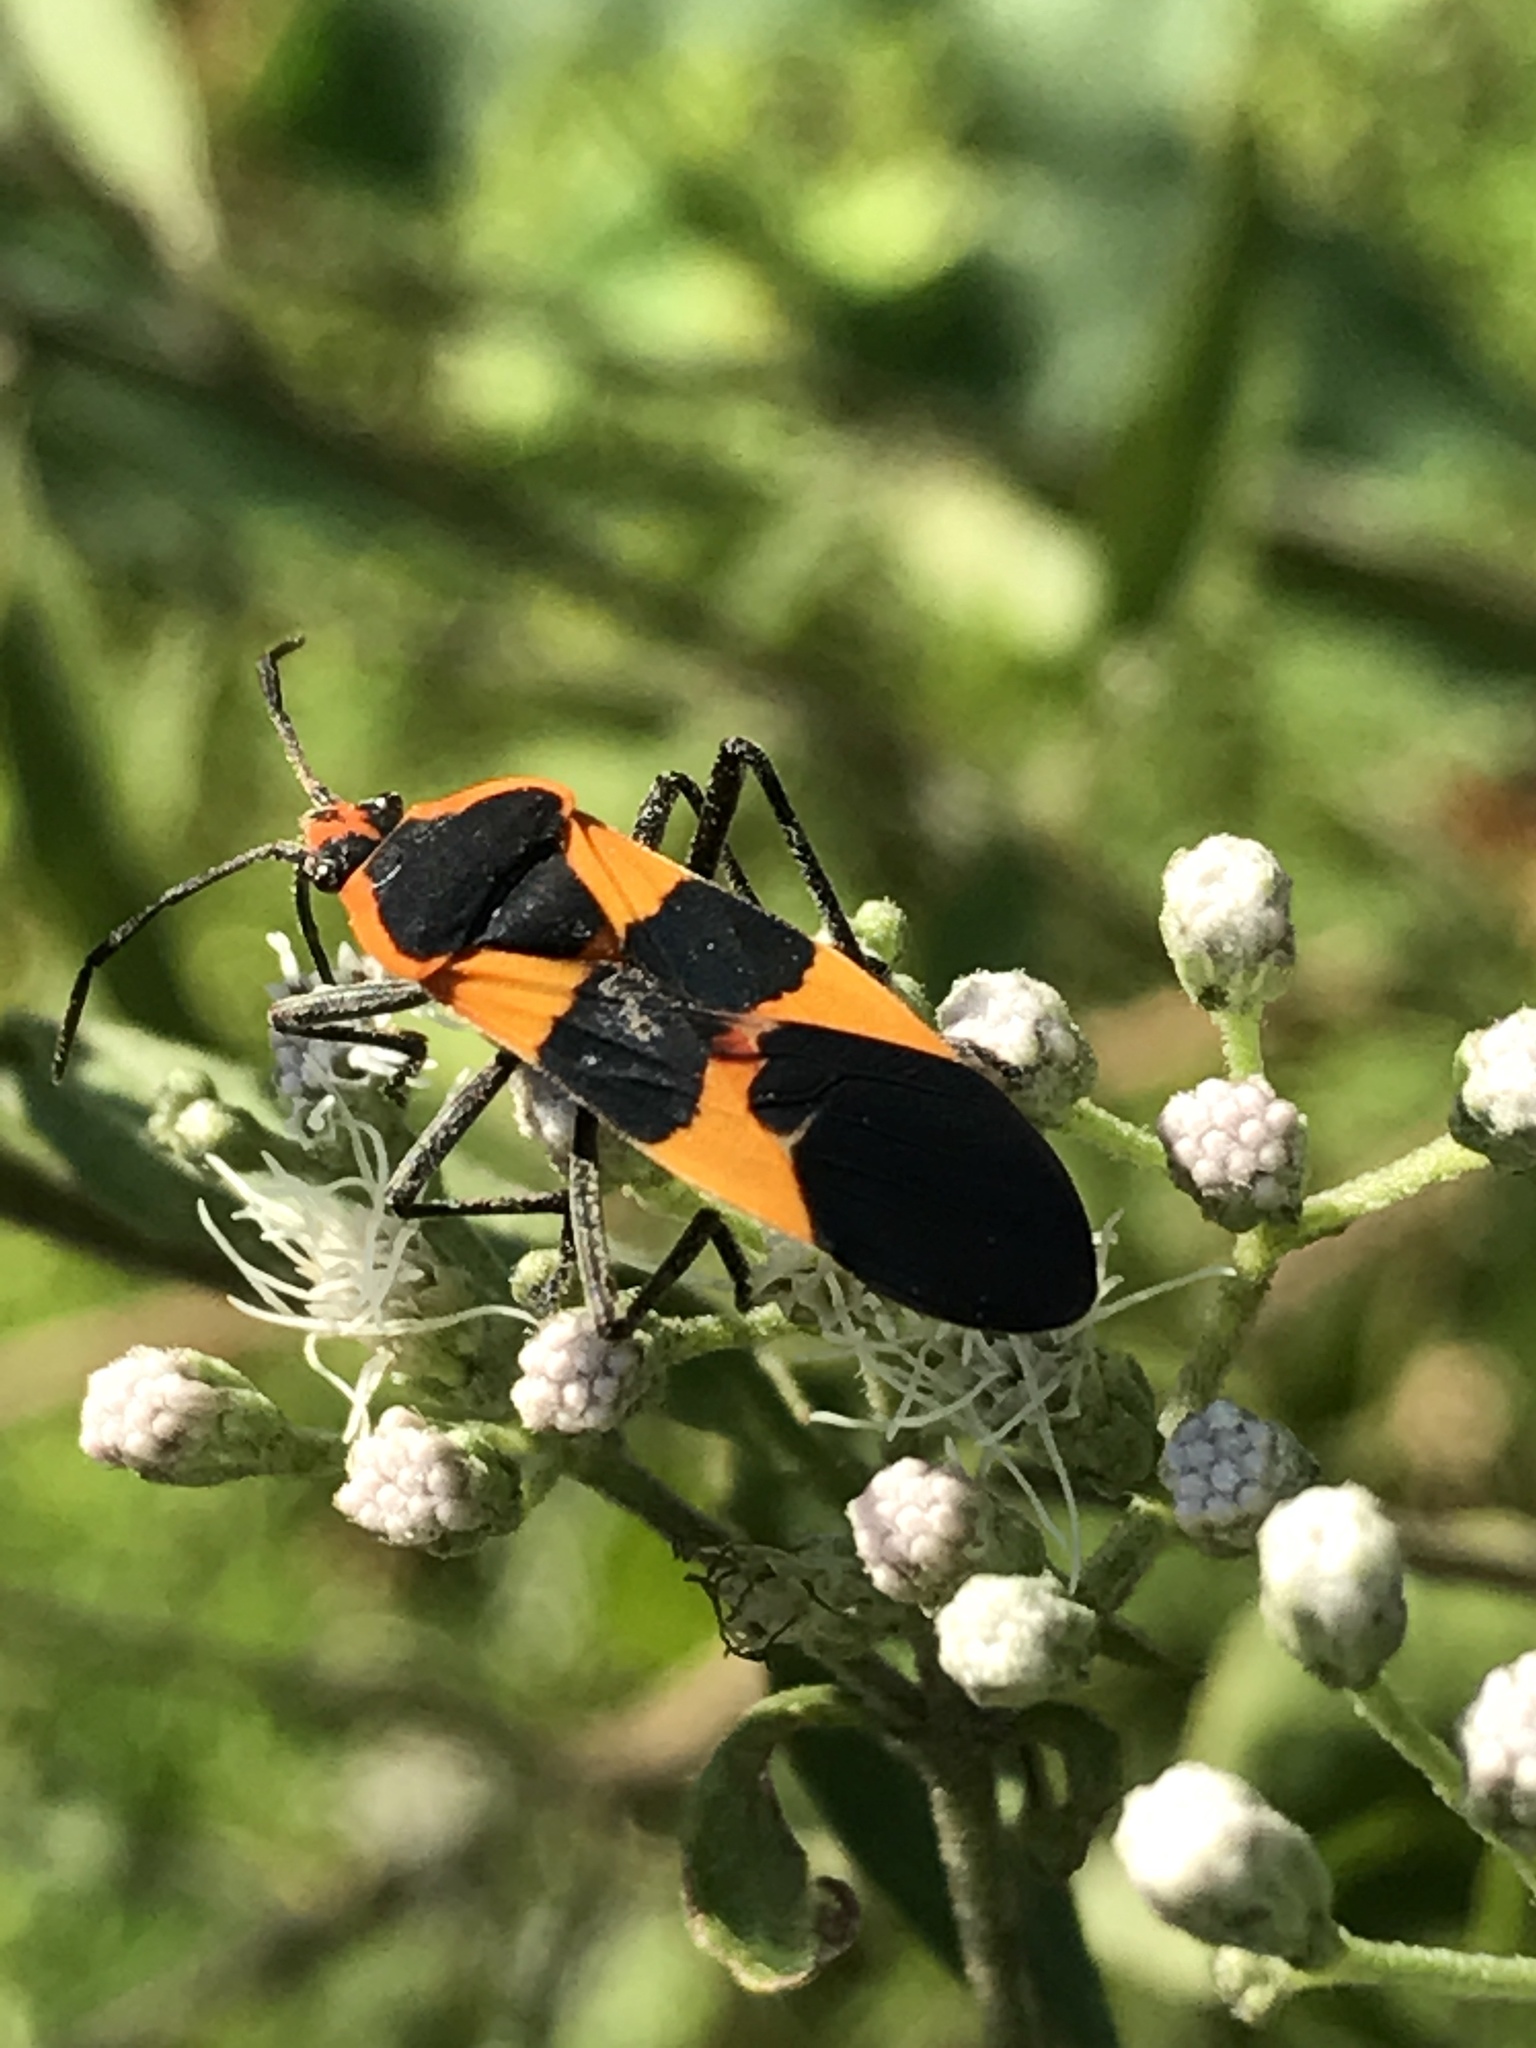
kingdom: Animalia
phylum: Arthropoda
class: Insecta
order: Hemiptera
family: Lygaeidae
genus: Oncopeltus
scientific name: Oncopeltus fasciatus
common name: Large milkweed bug
